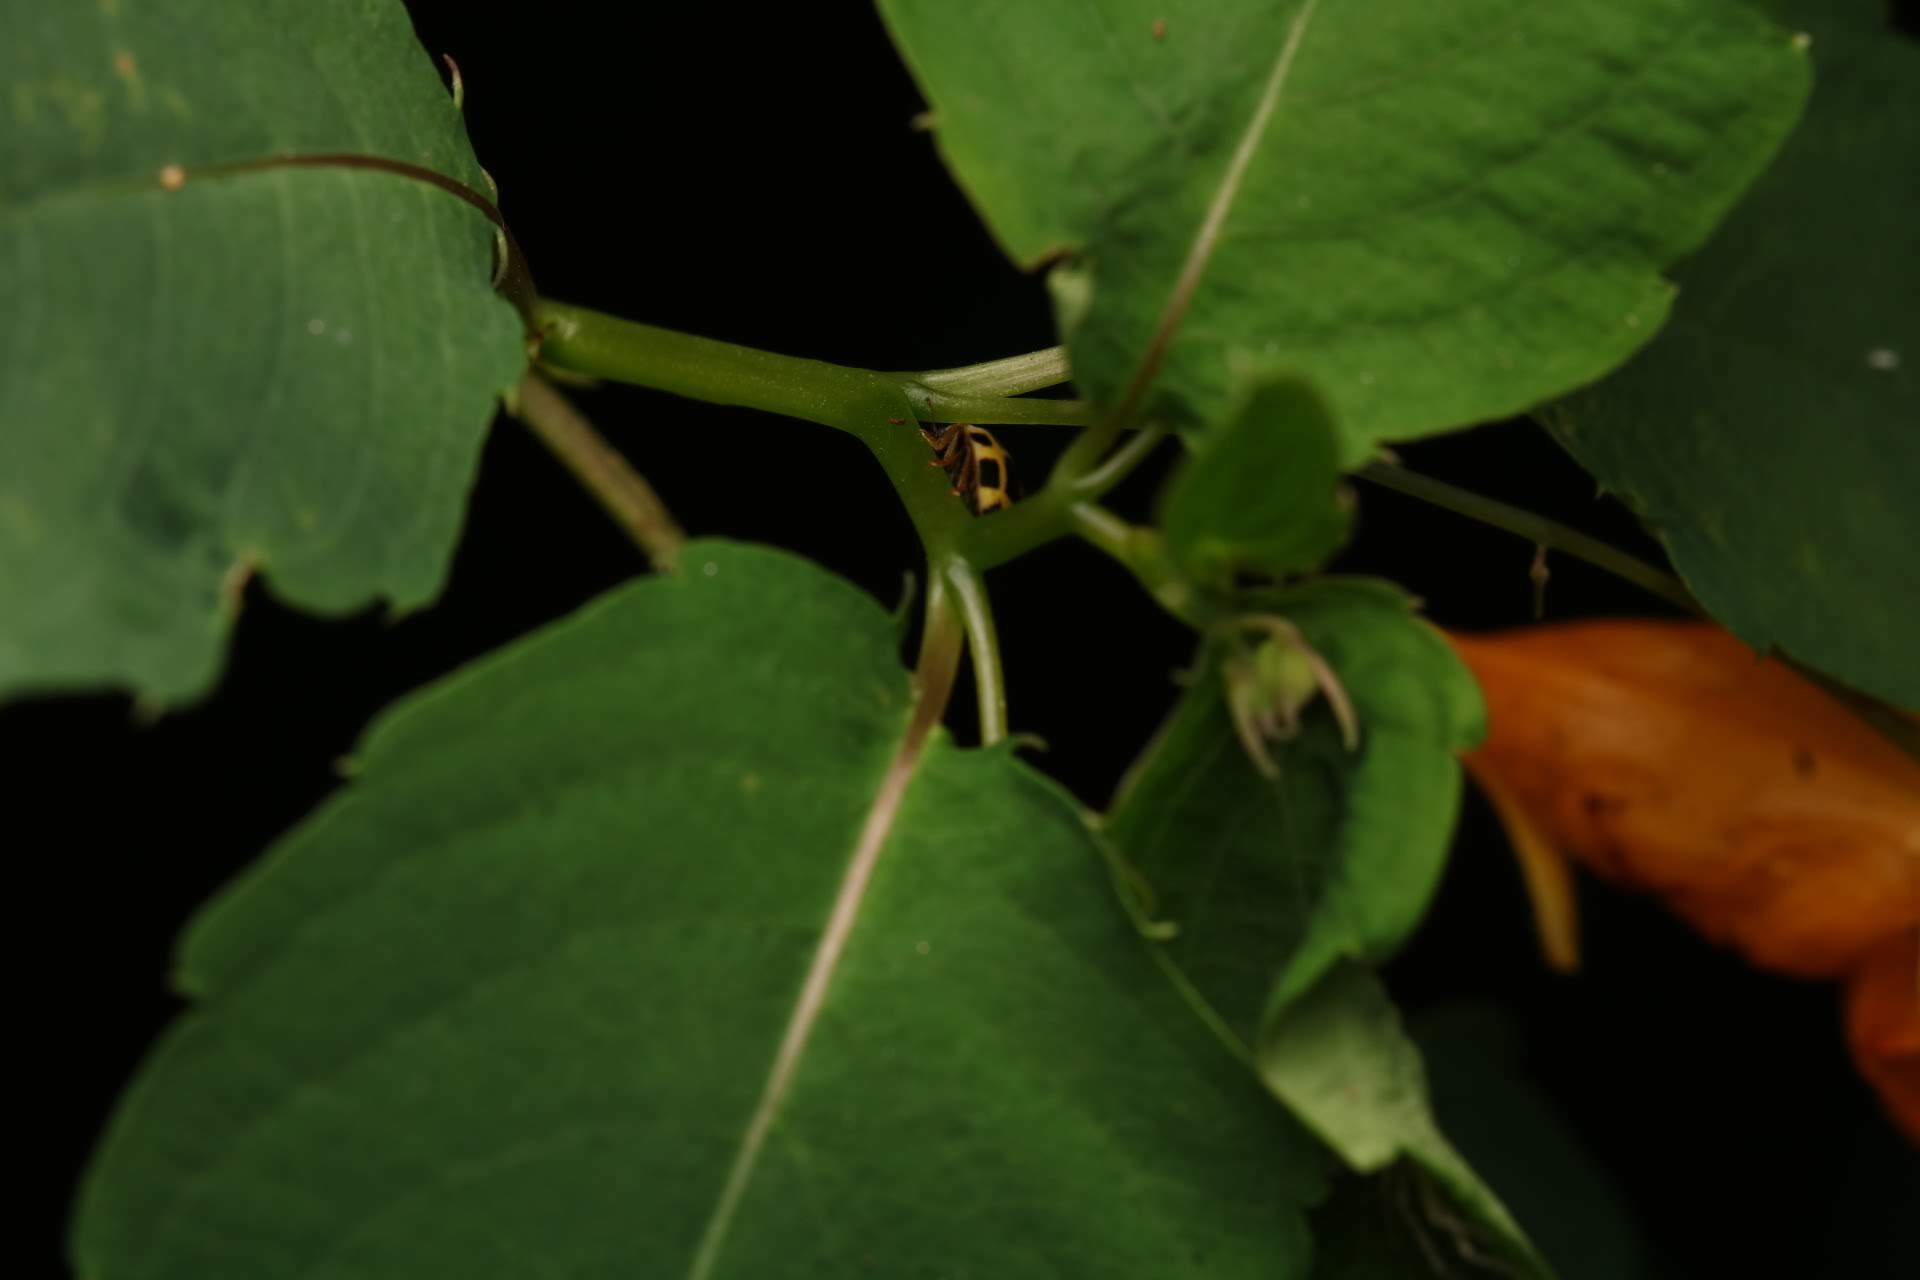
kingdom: Animalia
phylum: Arthropoda
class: Insecta
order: Coleoptera
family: Coccinellidae
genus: Propylaea
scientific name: Propylaea quatuordecimpunctata
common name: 14-spotted ladybird beetle
